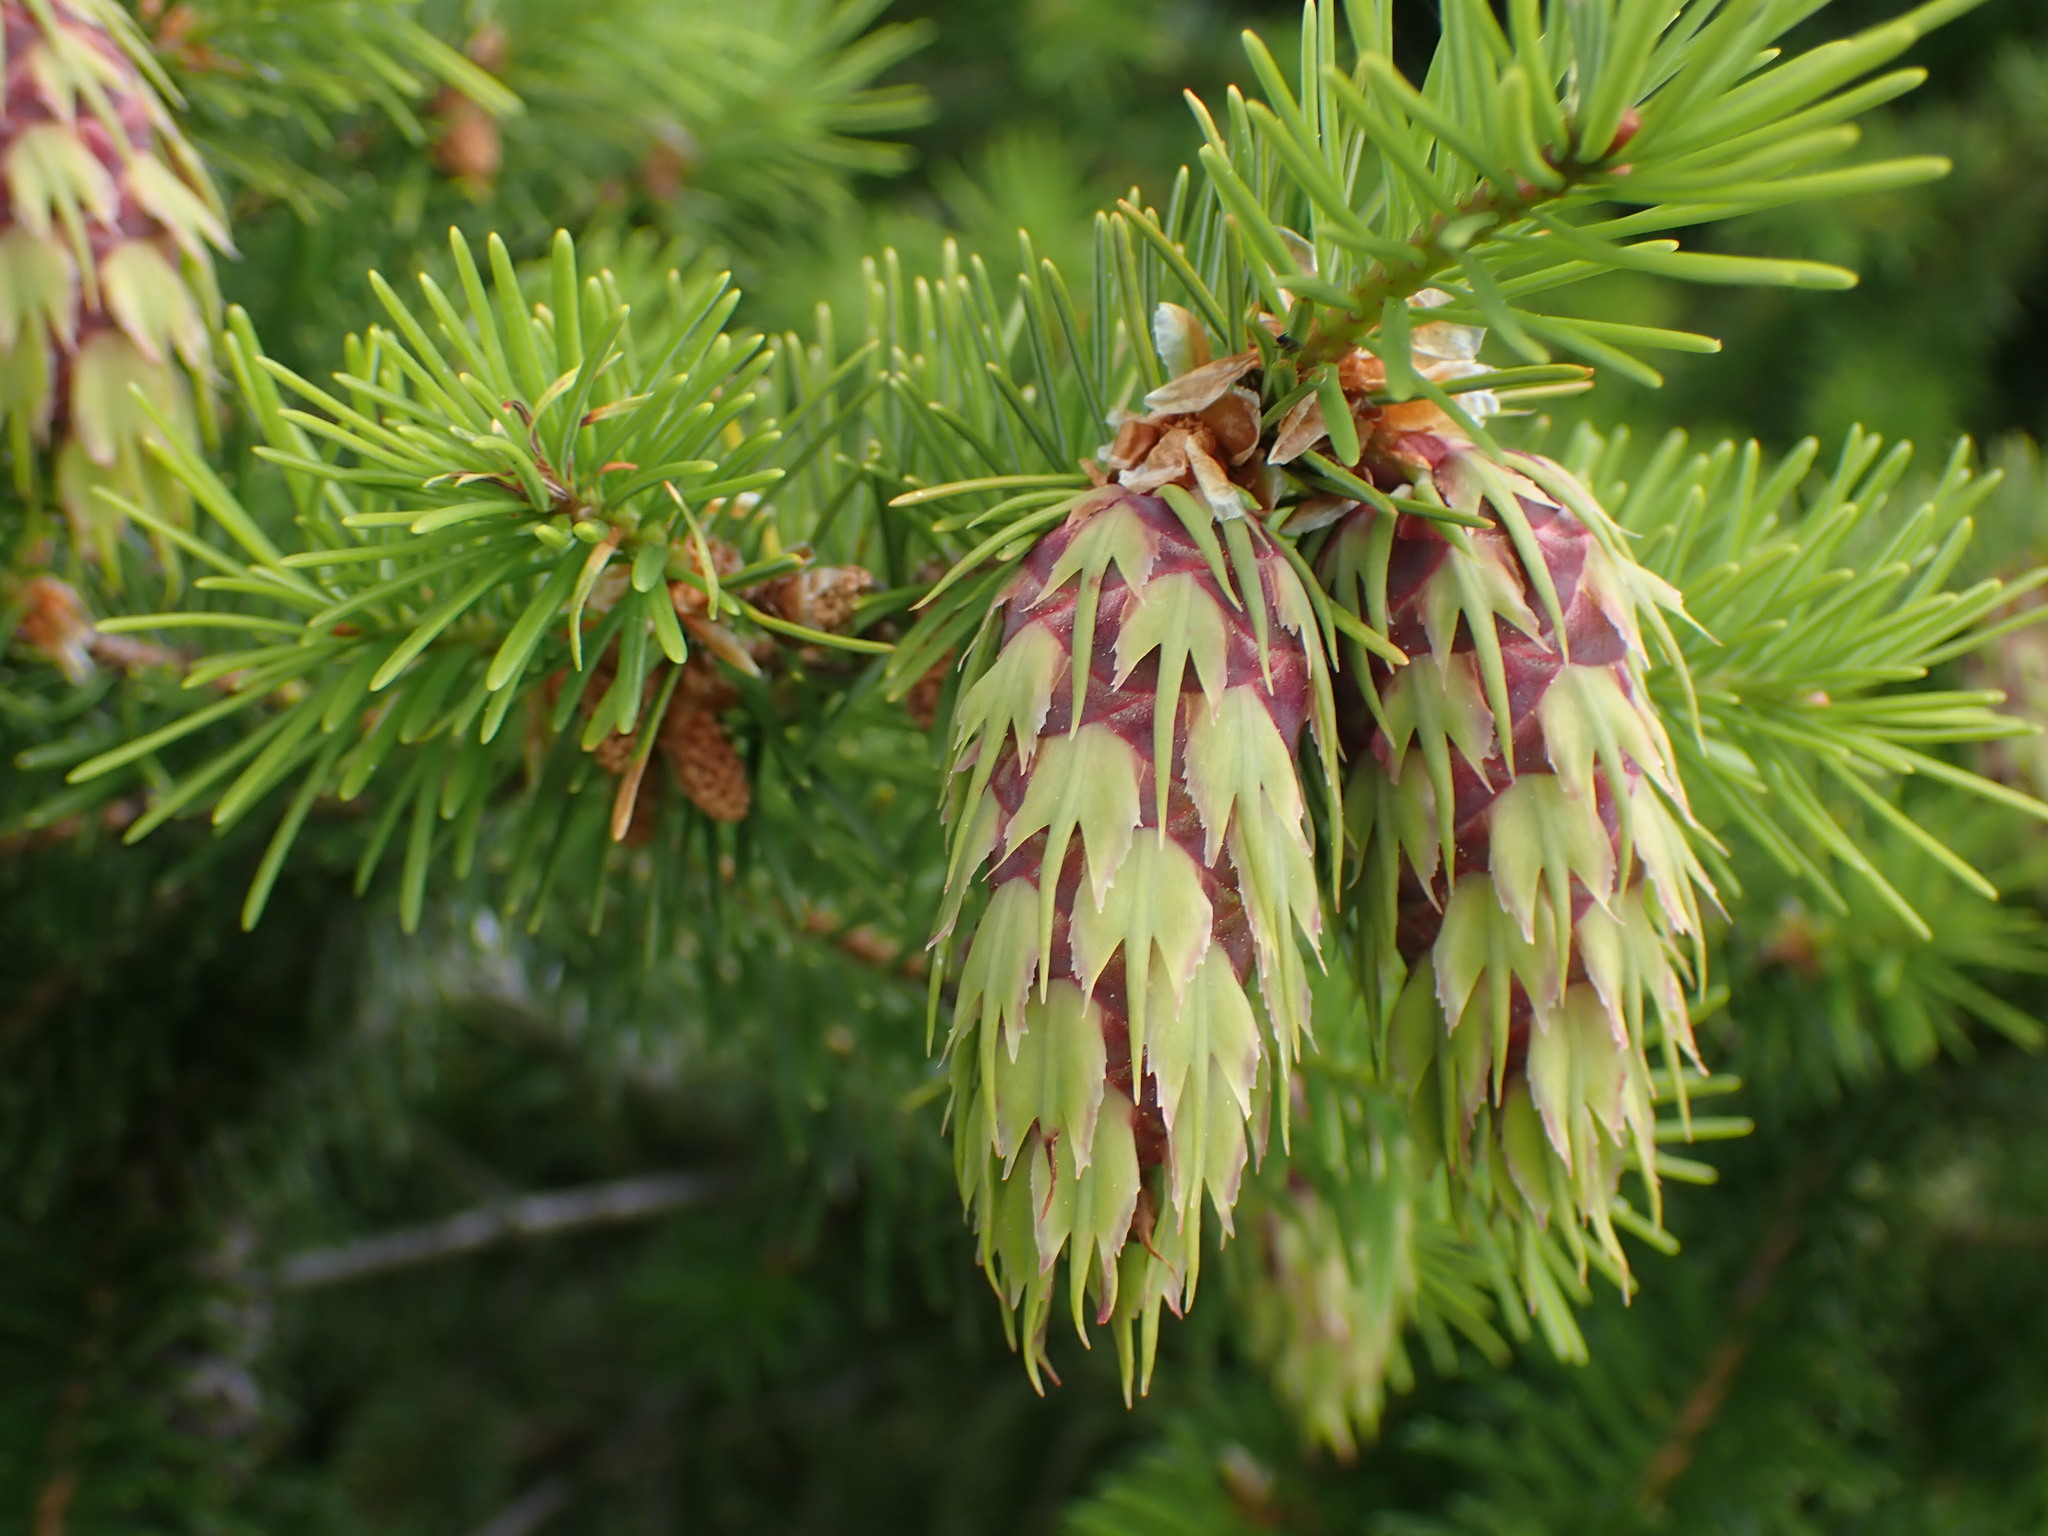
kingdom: Plantae
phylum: Tracheophyta
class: Pinopsida
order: Pinales
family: Pinaceae
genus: Pseudotsuga
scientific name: Pseudotsuga menziesii
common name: Douglas fir
